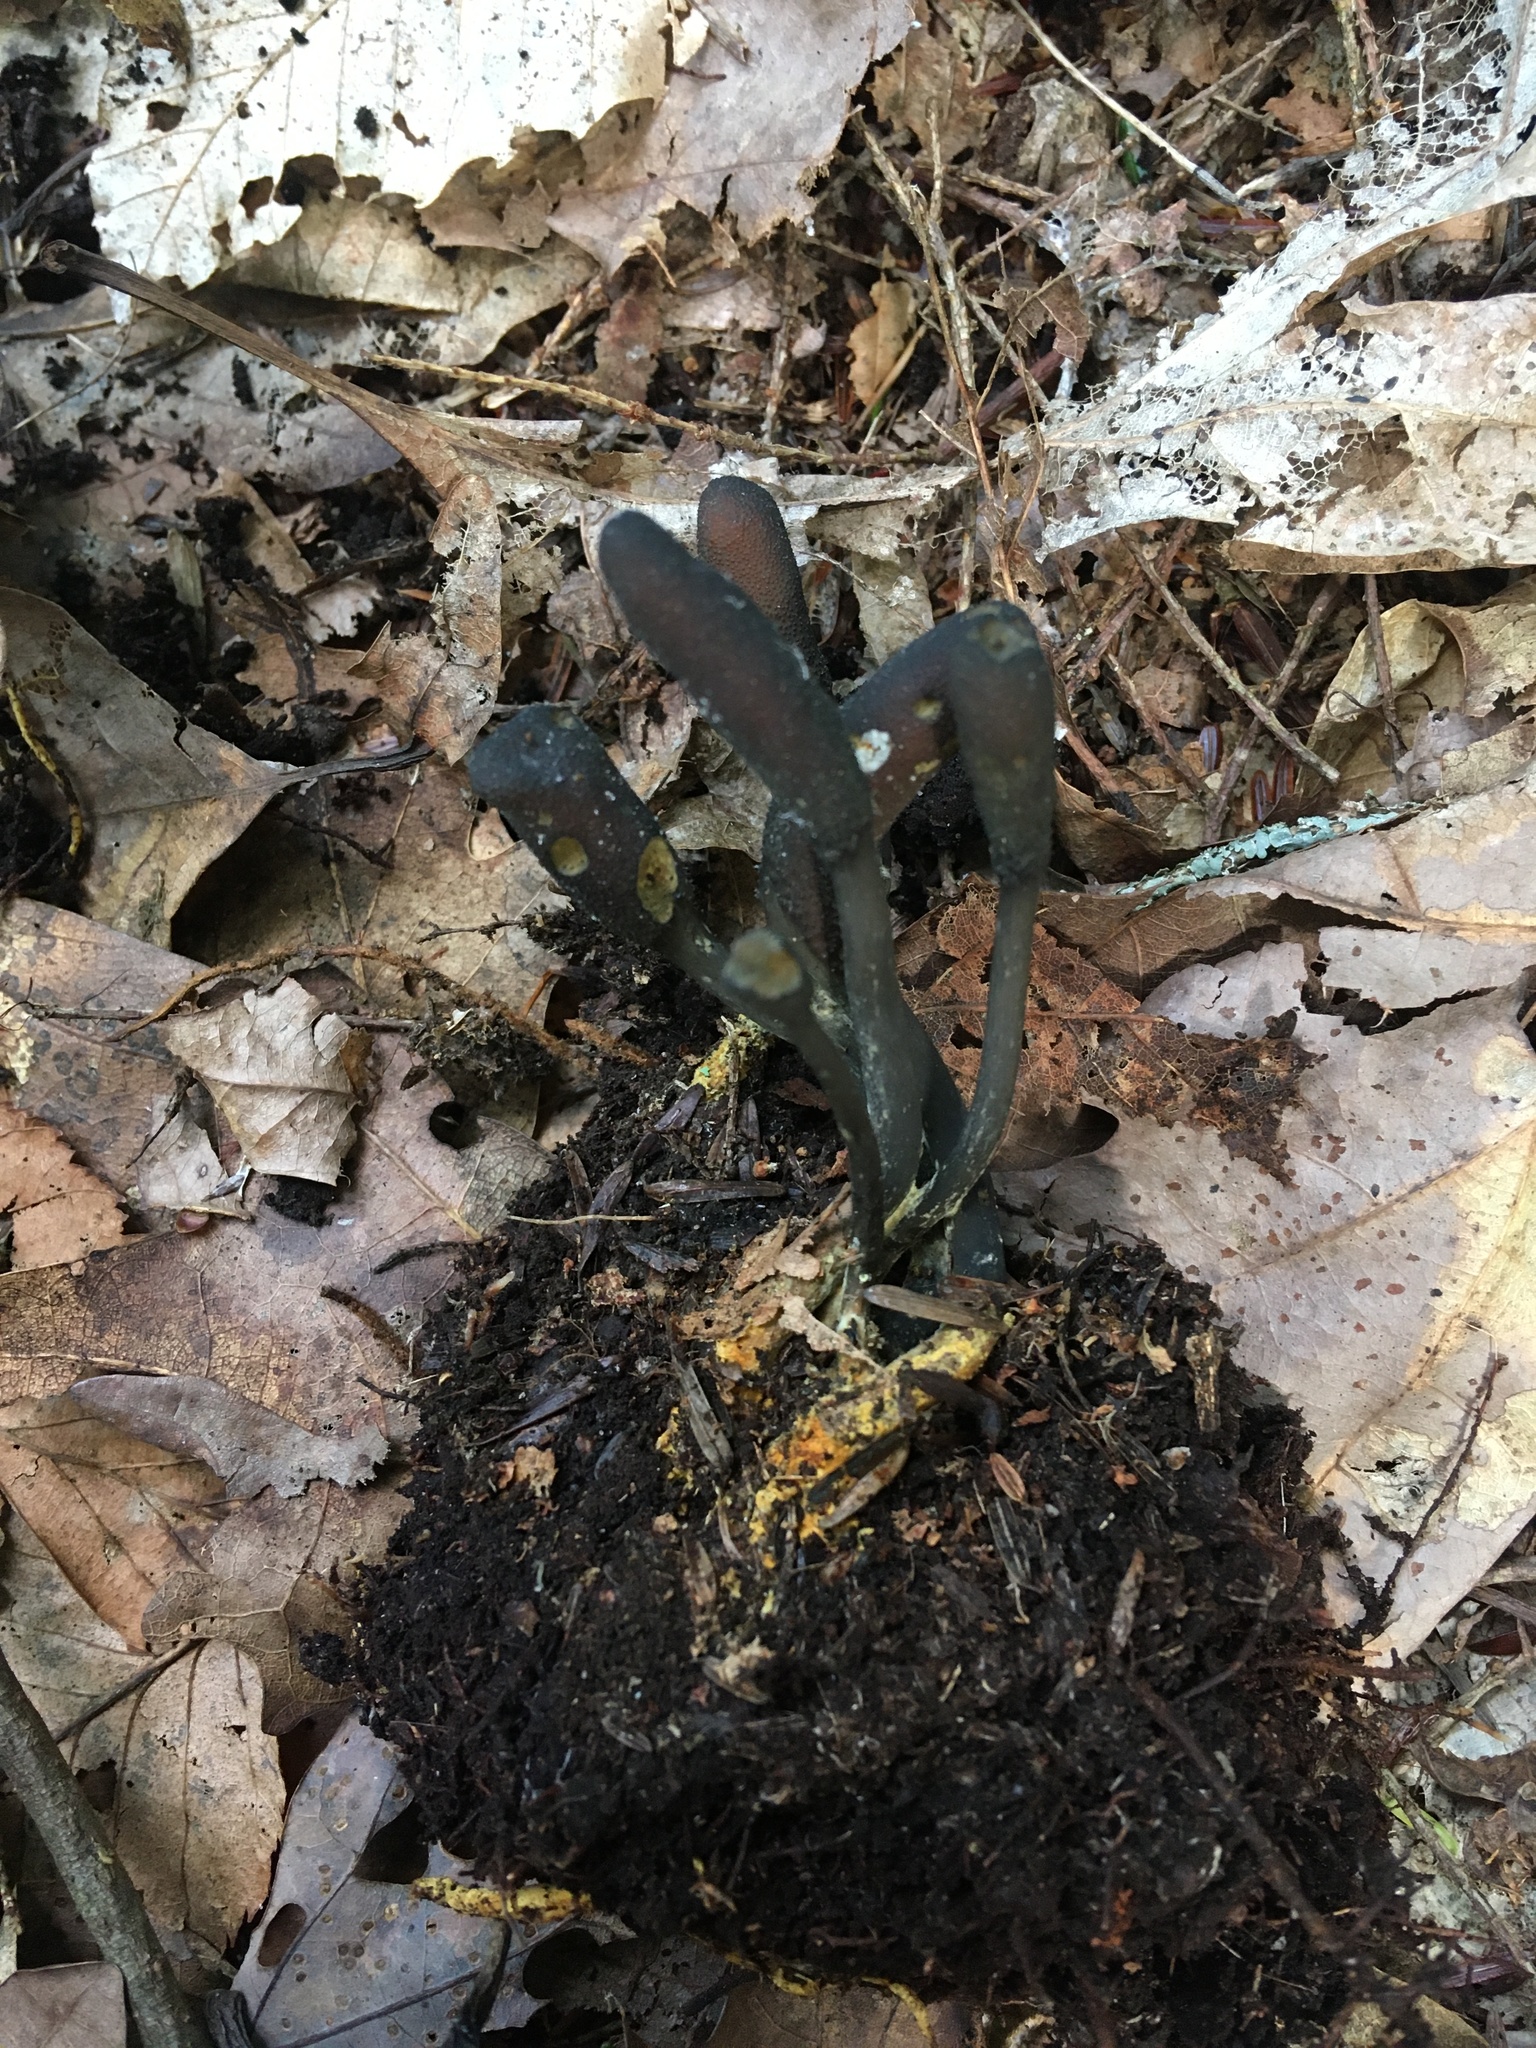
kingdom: Fungi
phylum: Ascomycota
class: Sordariomycetes
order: Hypocreales
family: Ophiocordycipitaceae
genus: Tolypocladium
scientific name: Tolypocladium ophioglossoides
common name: Snaketongue truffleclub
